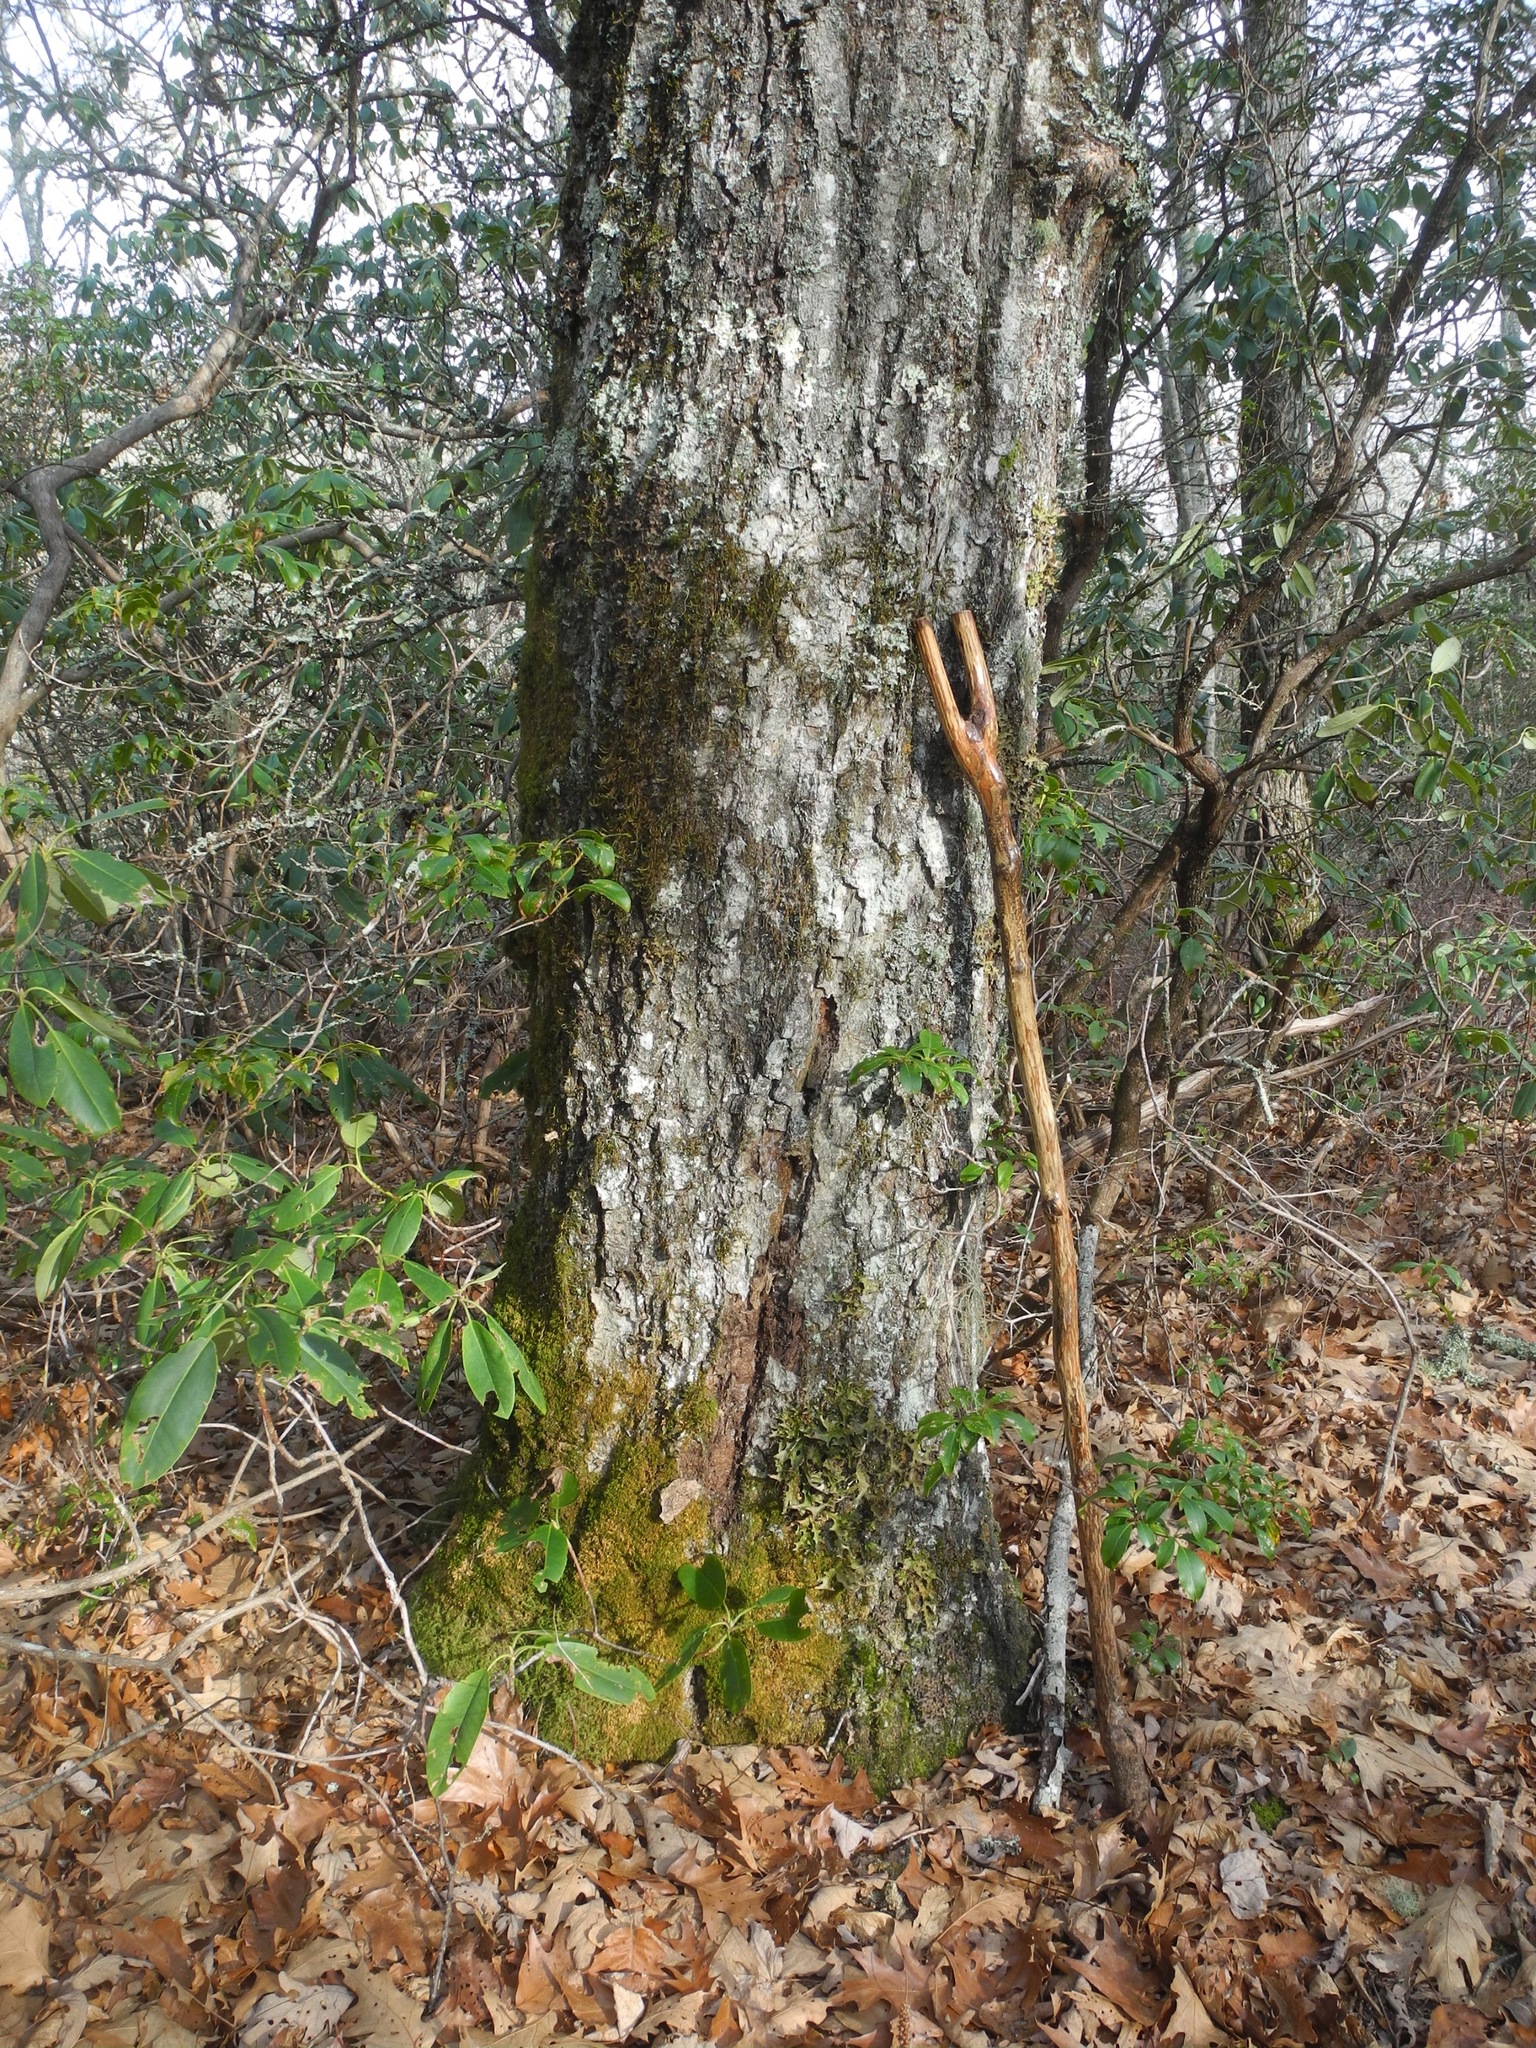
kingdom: Plantae
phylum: Tracheophyta
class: Magnoliopsida
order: Fagales
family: Fagaceae
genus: Quercus
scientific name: Quercus rubra
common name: Red oak
